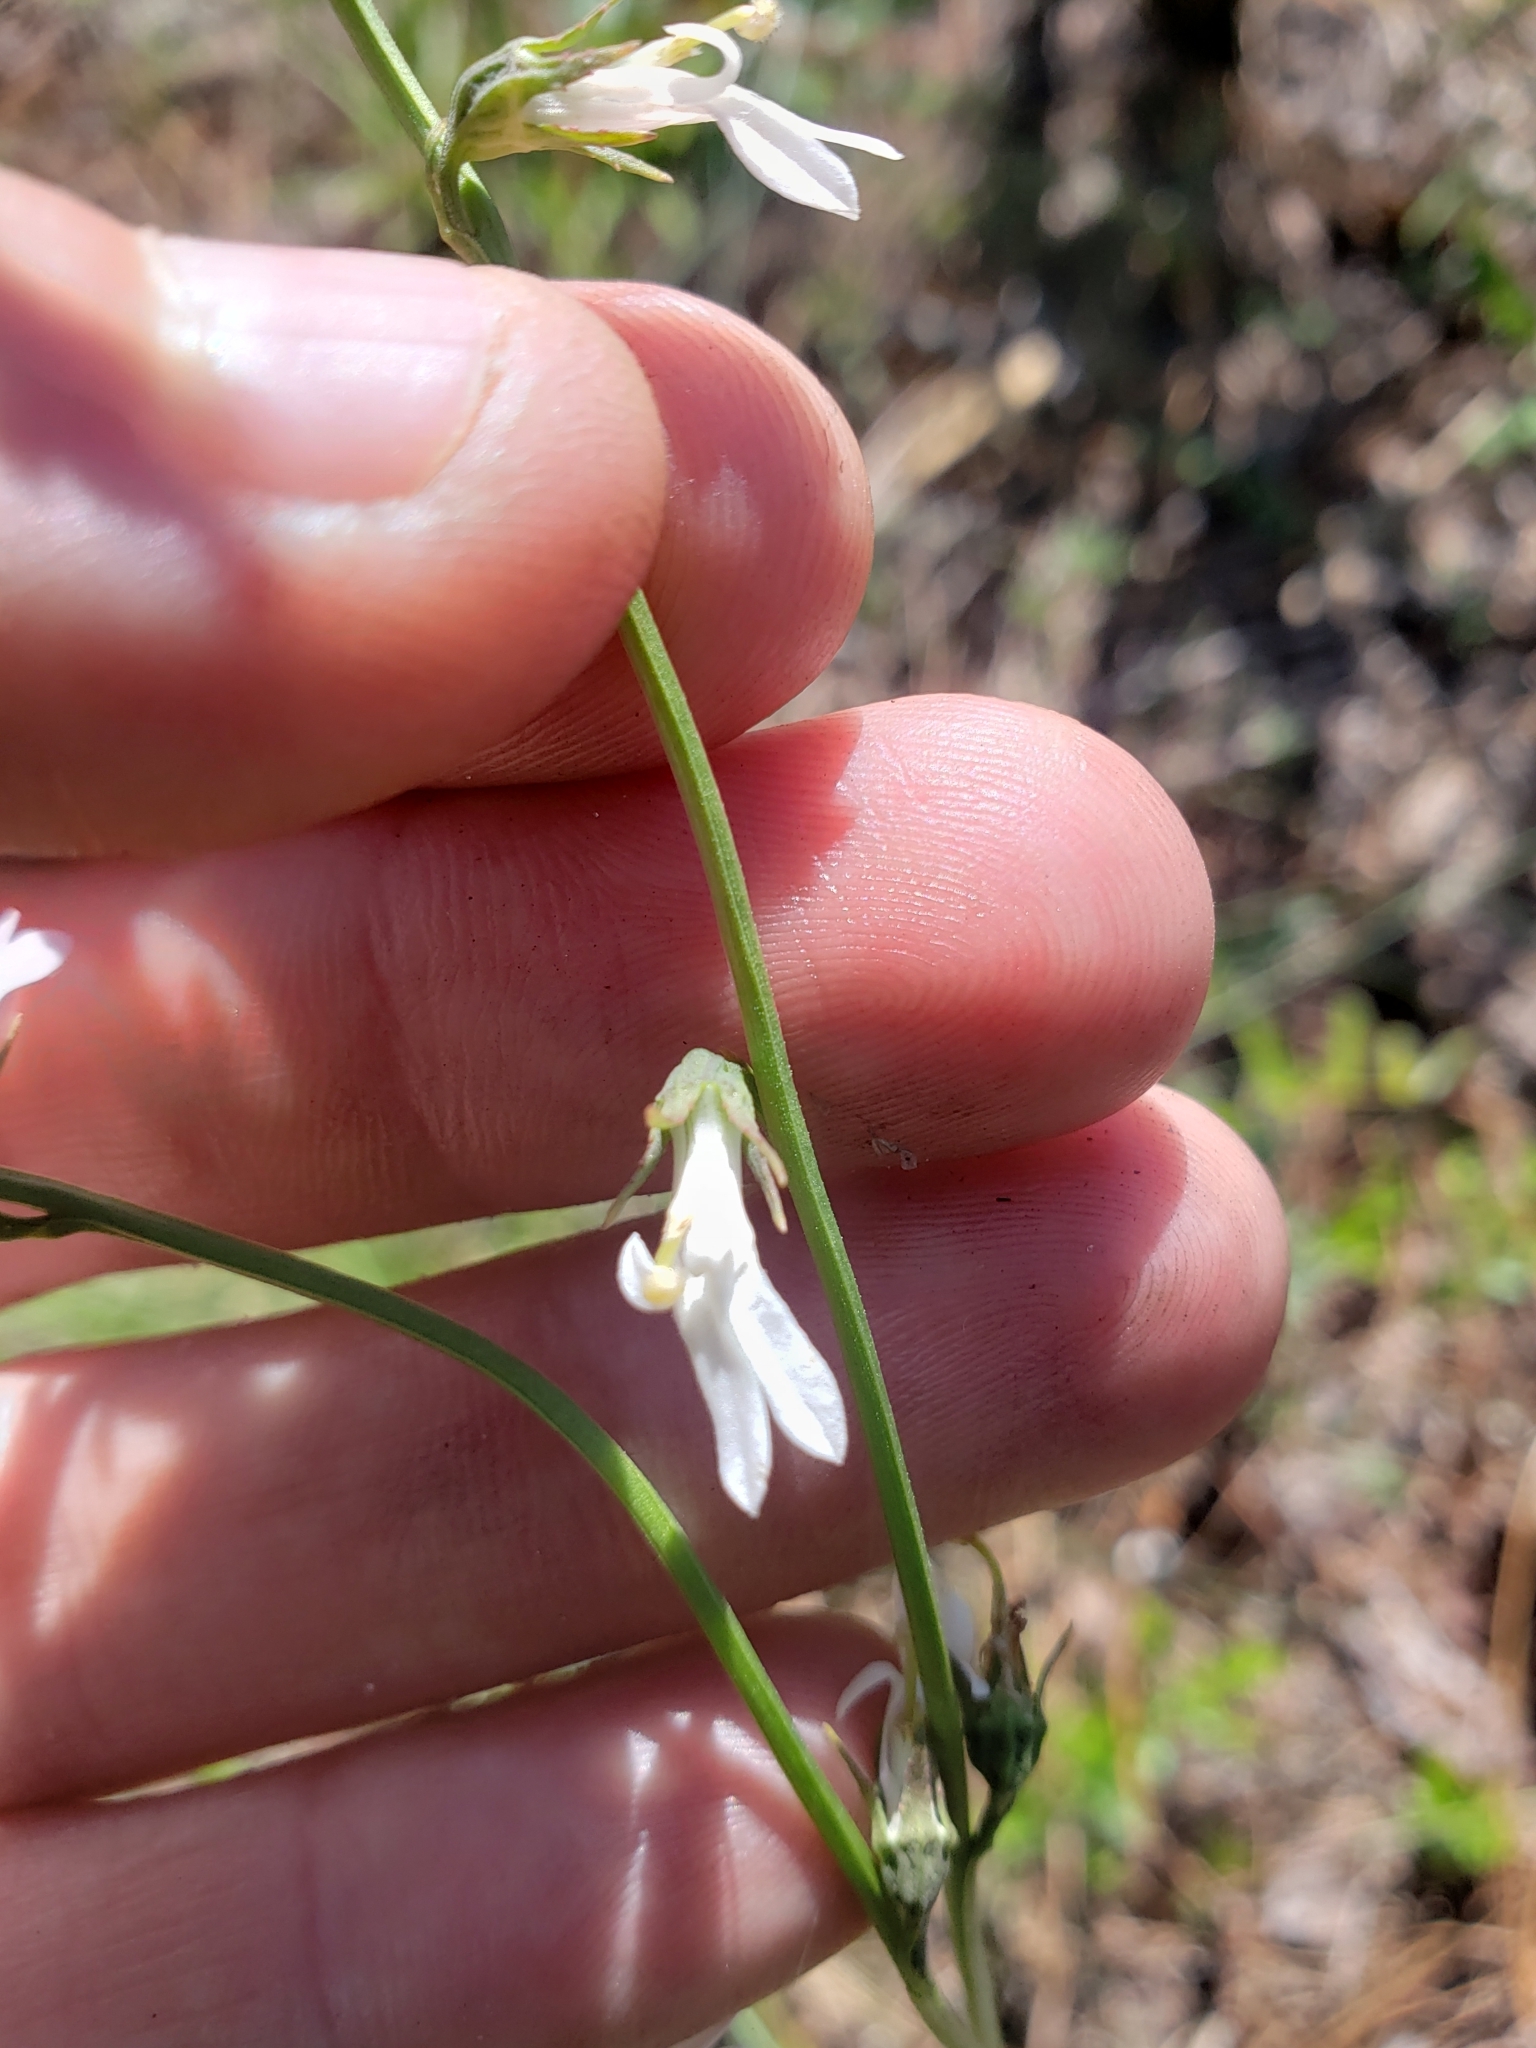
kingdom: Plantae
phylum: Tracheophyta
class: Magnoliopsida
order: Asterales
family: Campanulaceae
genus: Lobelia
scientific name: Lobelia paludosa
